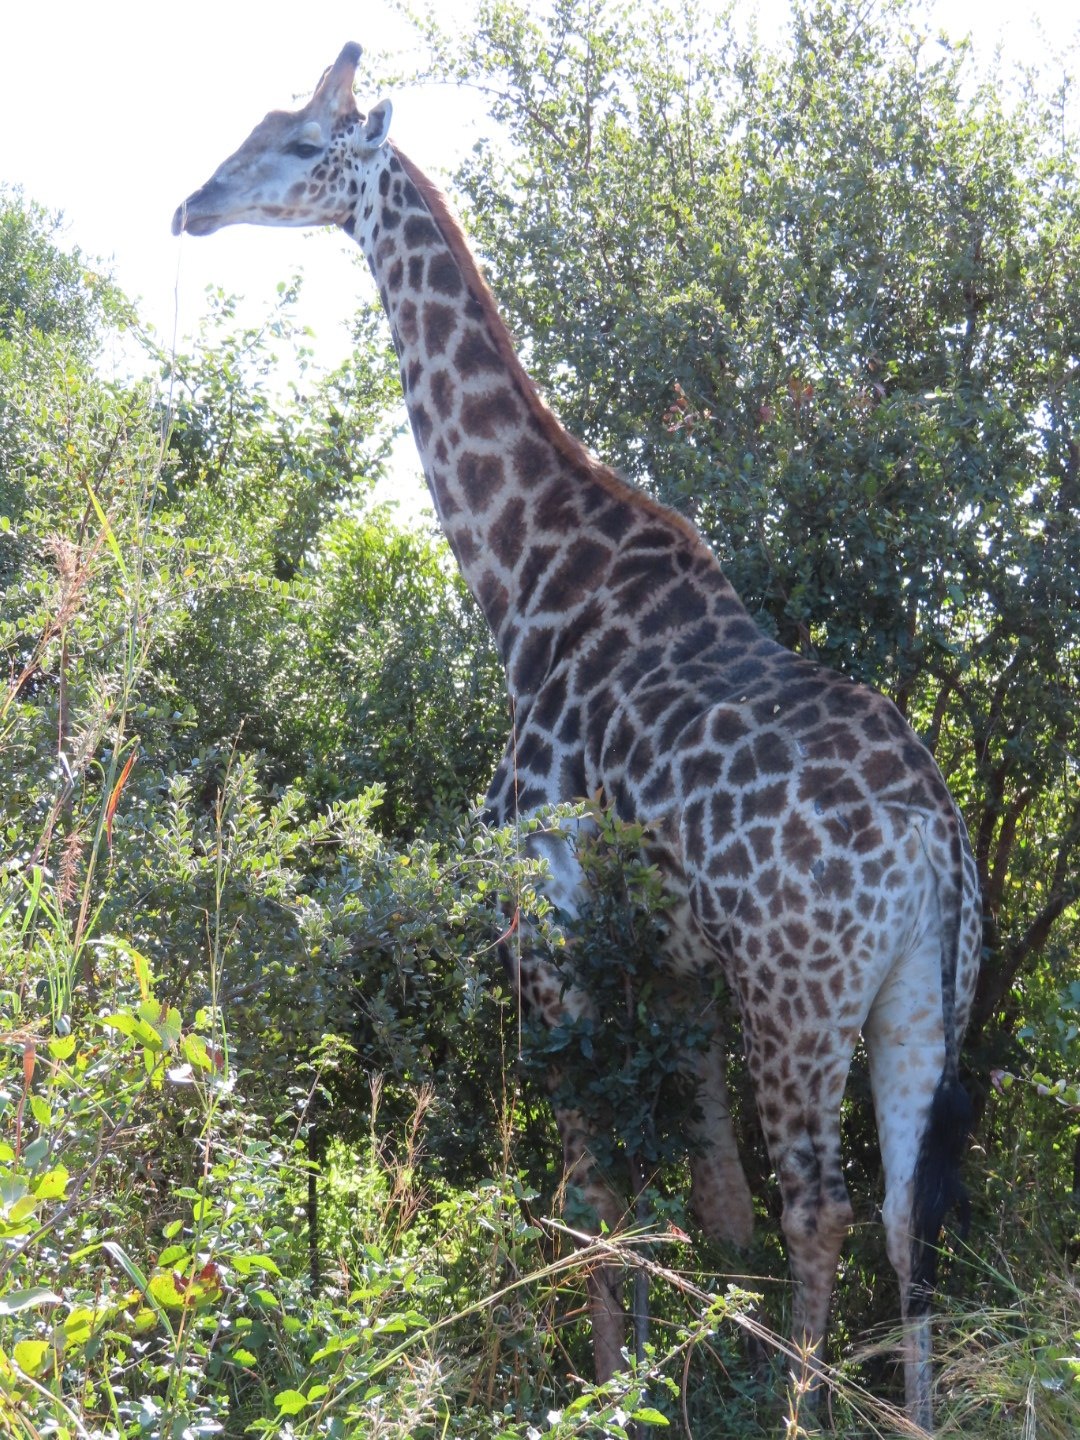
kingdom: Animalia
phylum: Chordata
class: Mammalia
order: Artiodactyla
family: Giraffidae
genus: Giraffa
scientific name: Giraffa giraffa
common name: Southern giraffe
